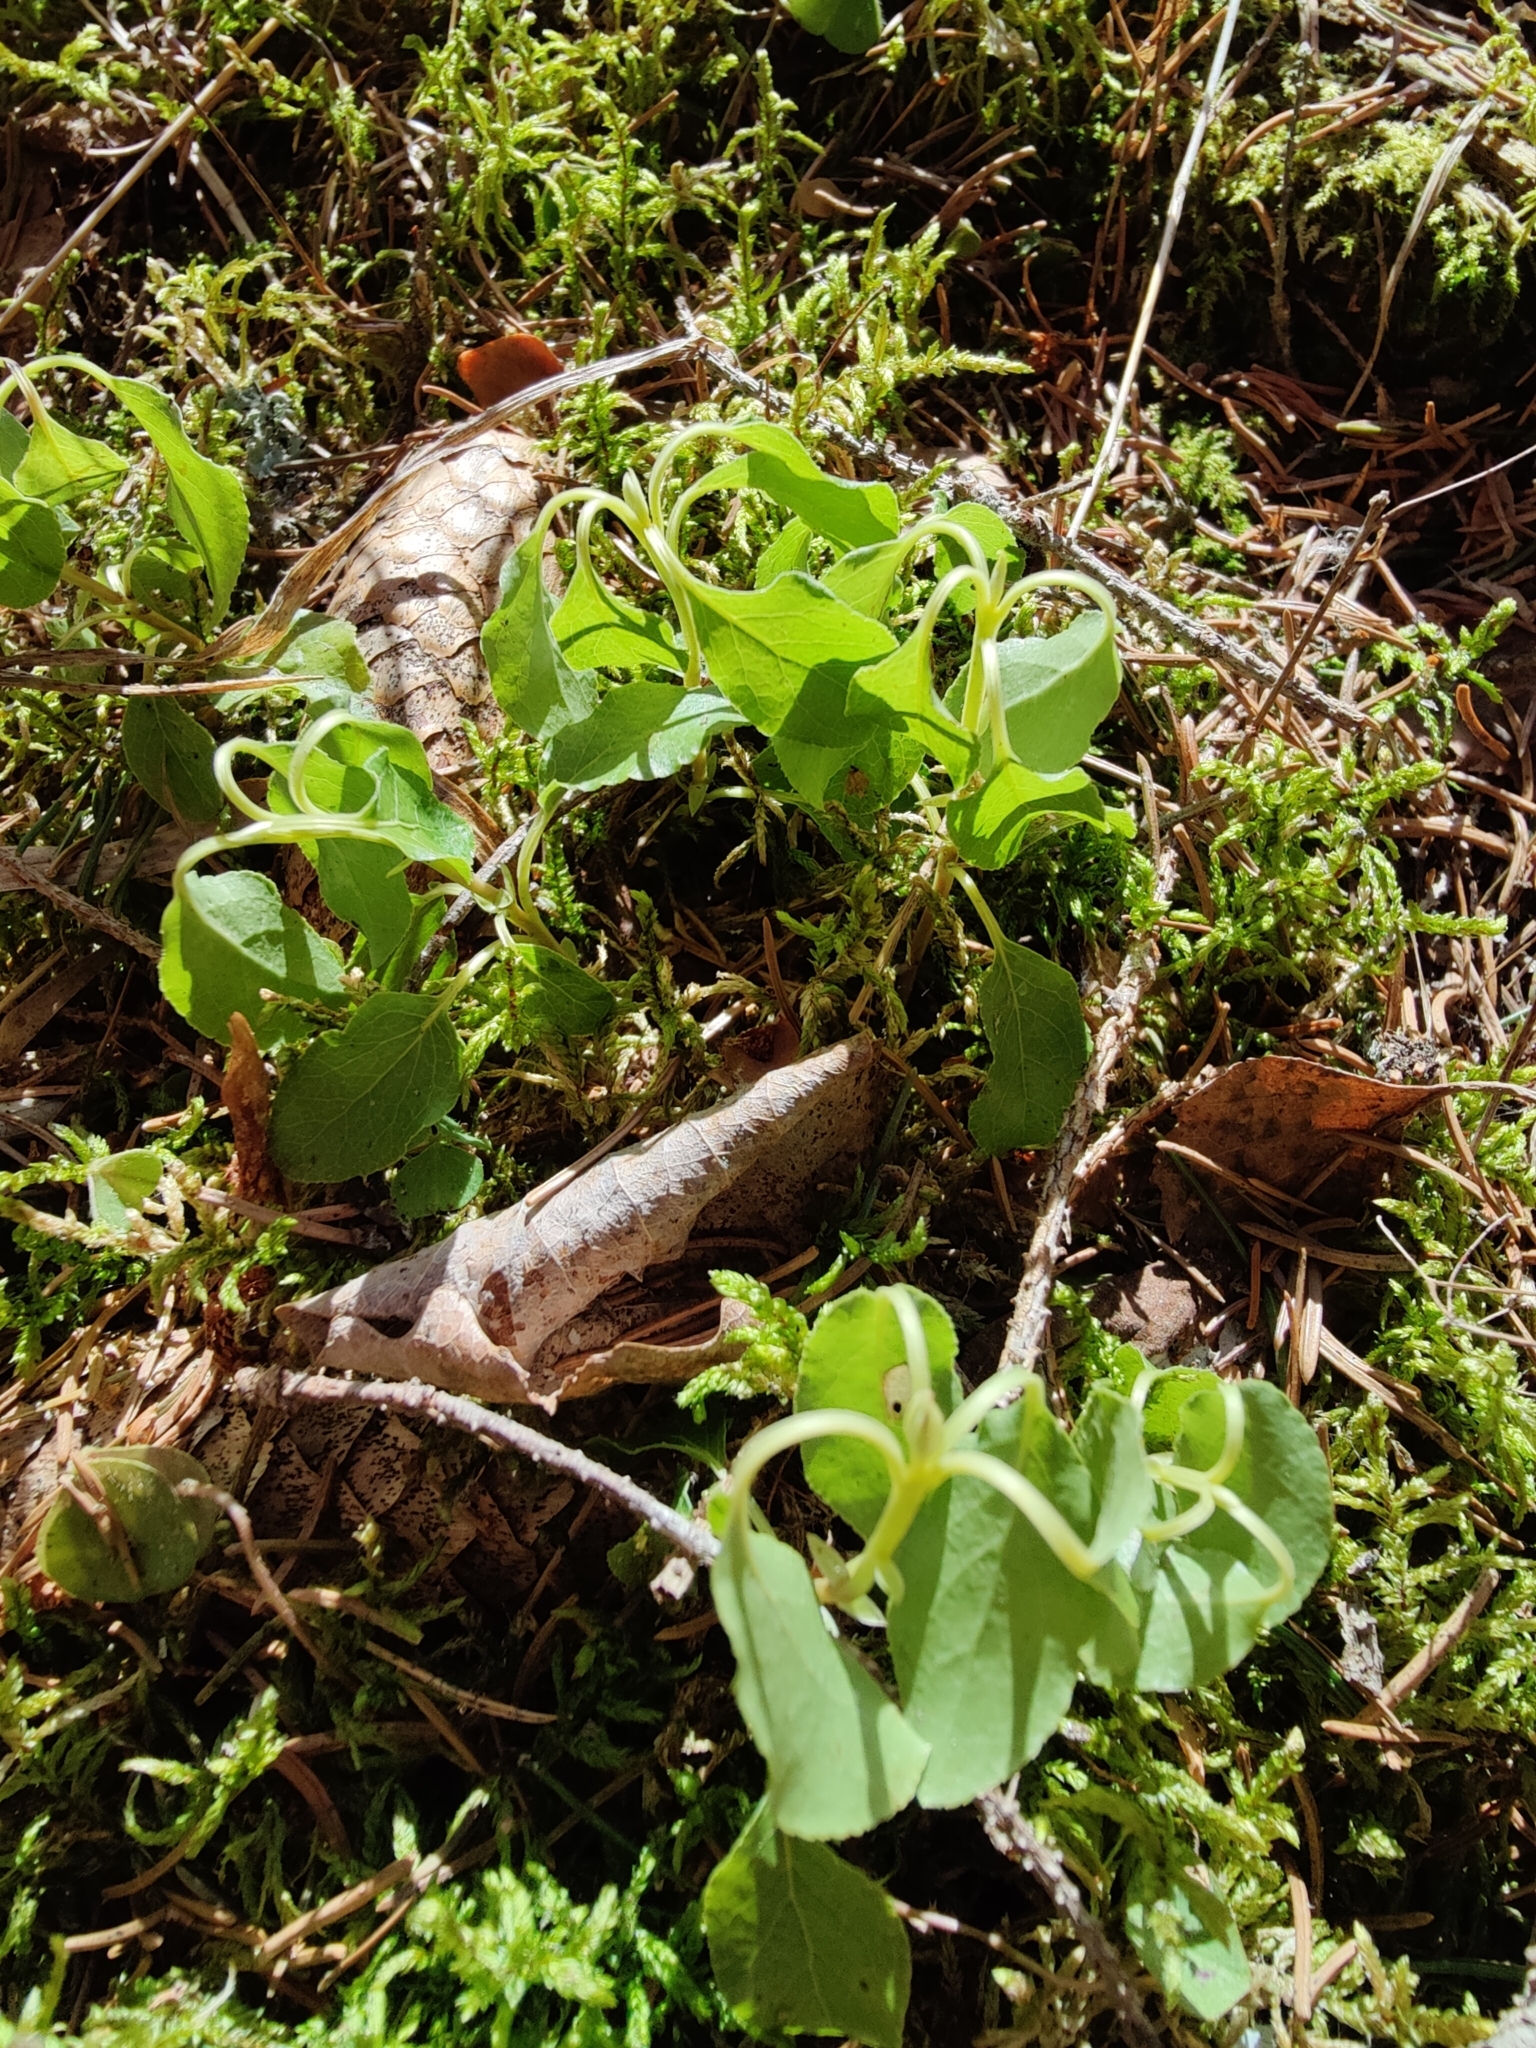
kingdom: Plantae
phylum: Tracheophyta
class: Magnoliopsida
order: Ericales
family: Ericaceae
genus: Orthilia
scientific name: Orthilia secunda
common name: One-sided orthilia
